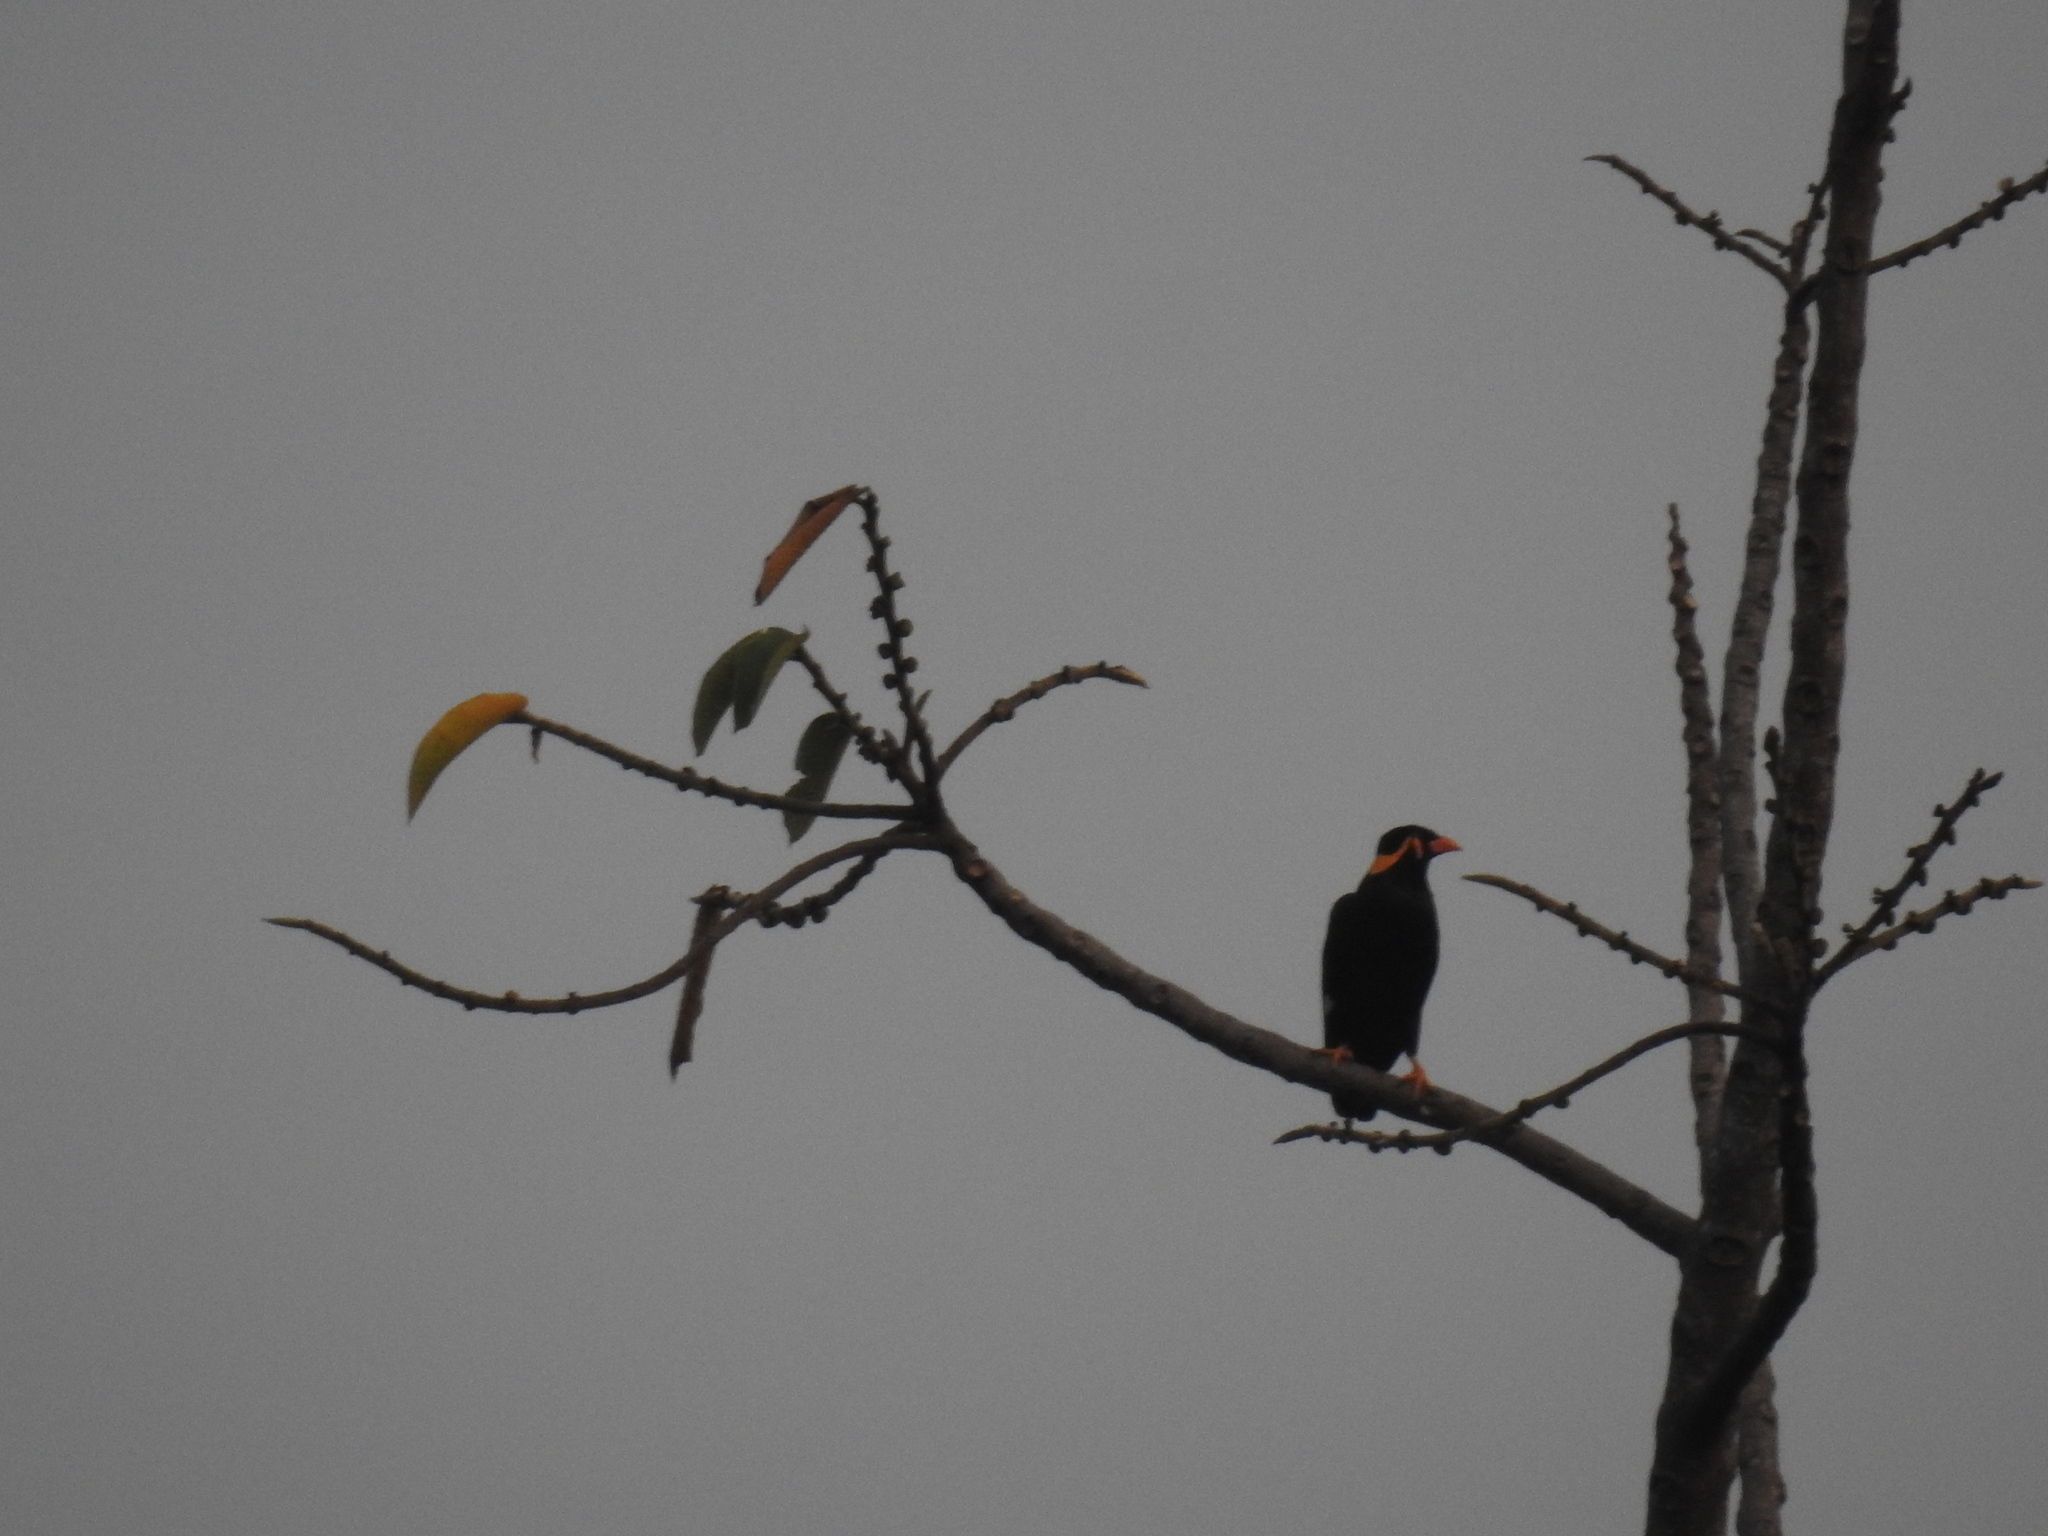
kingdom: Animalia
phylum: Chordata
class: Aves
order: Passeriformes
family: Sturnidae
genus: Gracula
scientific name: Gracula religiosa
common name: Common hill myna
